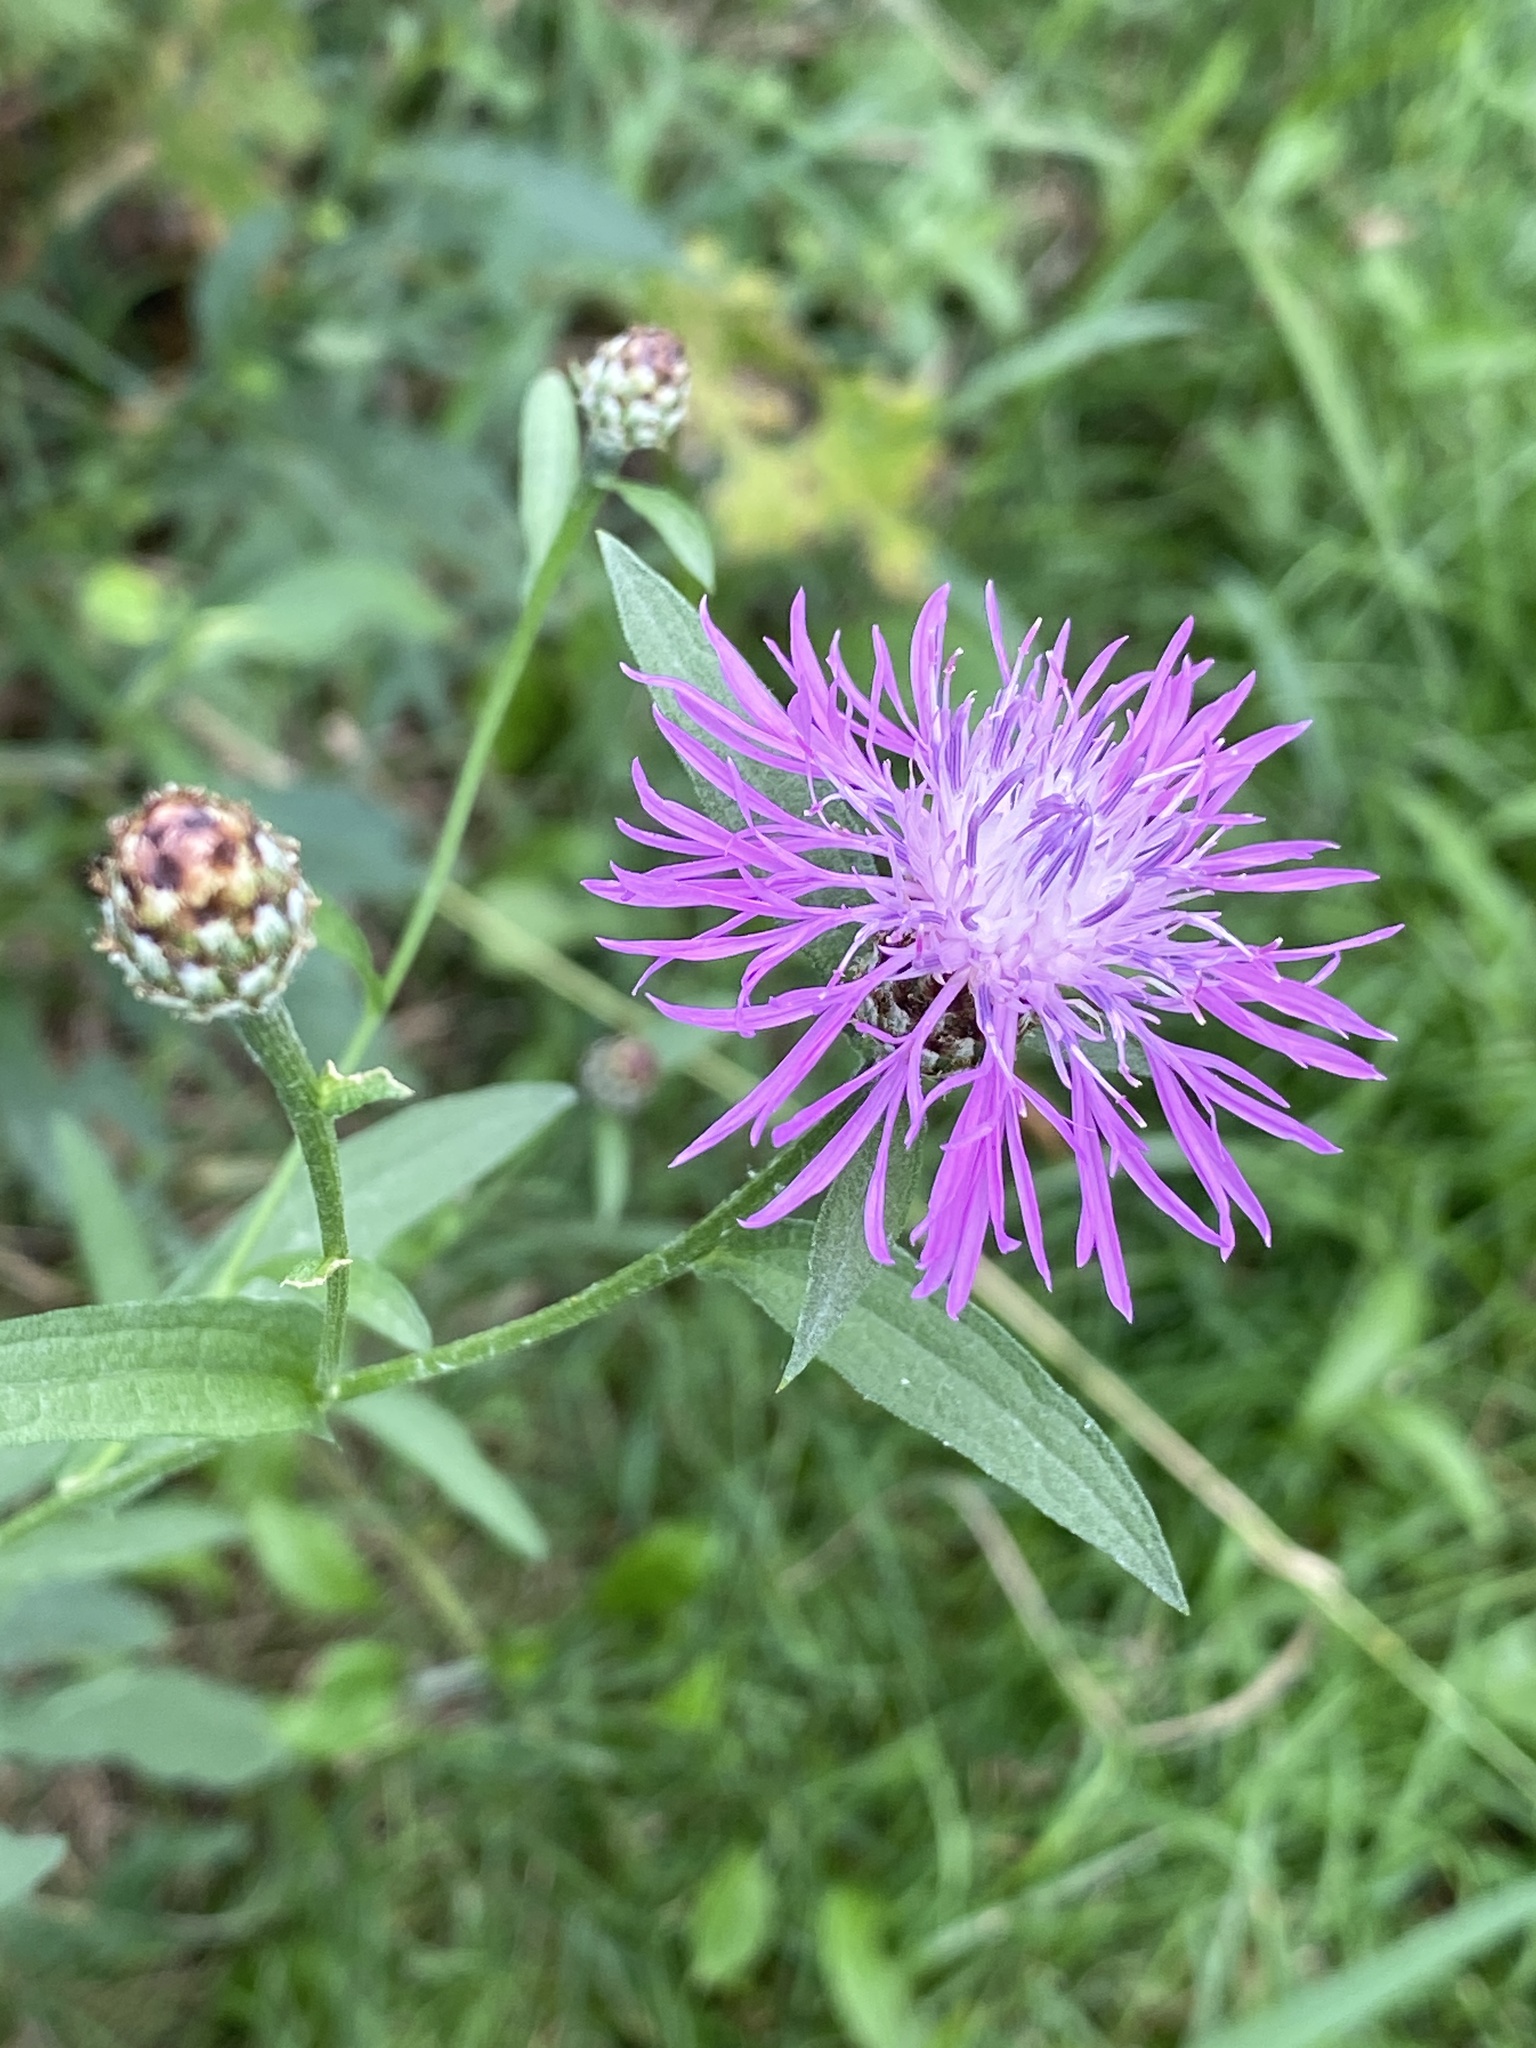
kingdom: Plantae
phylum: Tracheophyta
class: Magnoliopsida
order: Asterales
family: Asteraceae
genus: Centaurea
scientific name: Centaurea nigrescens
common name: Tyrol knapweed
